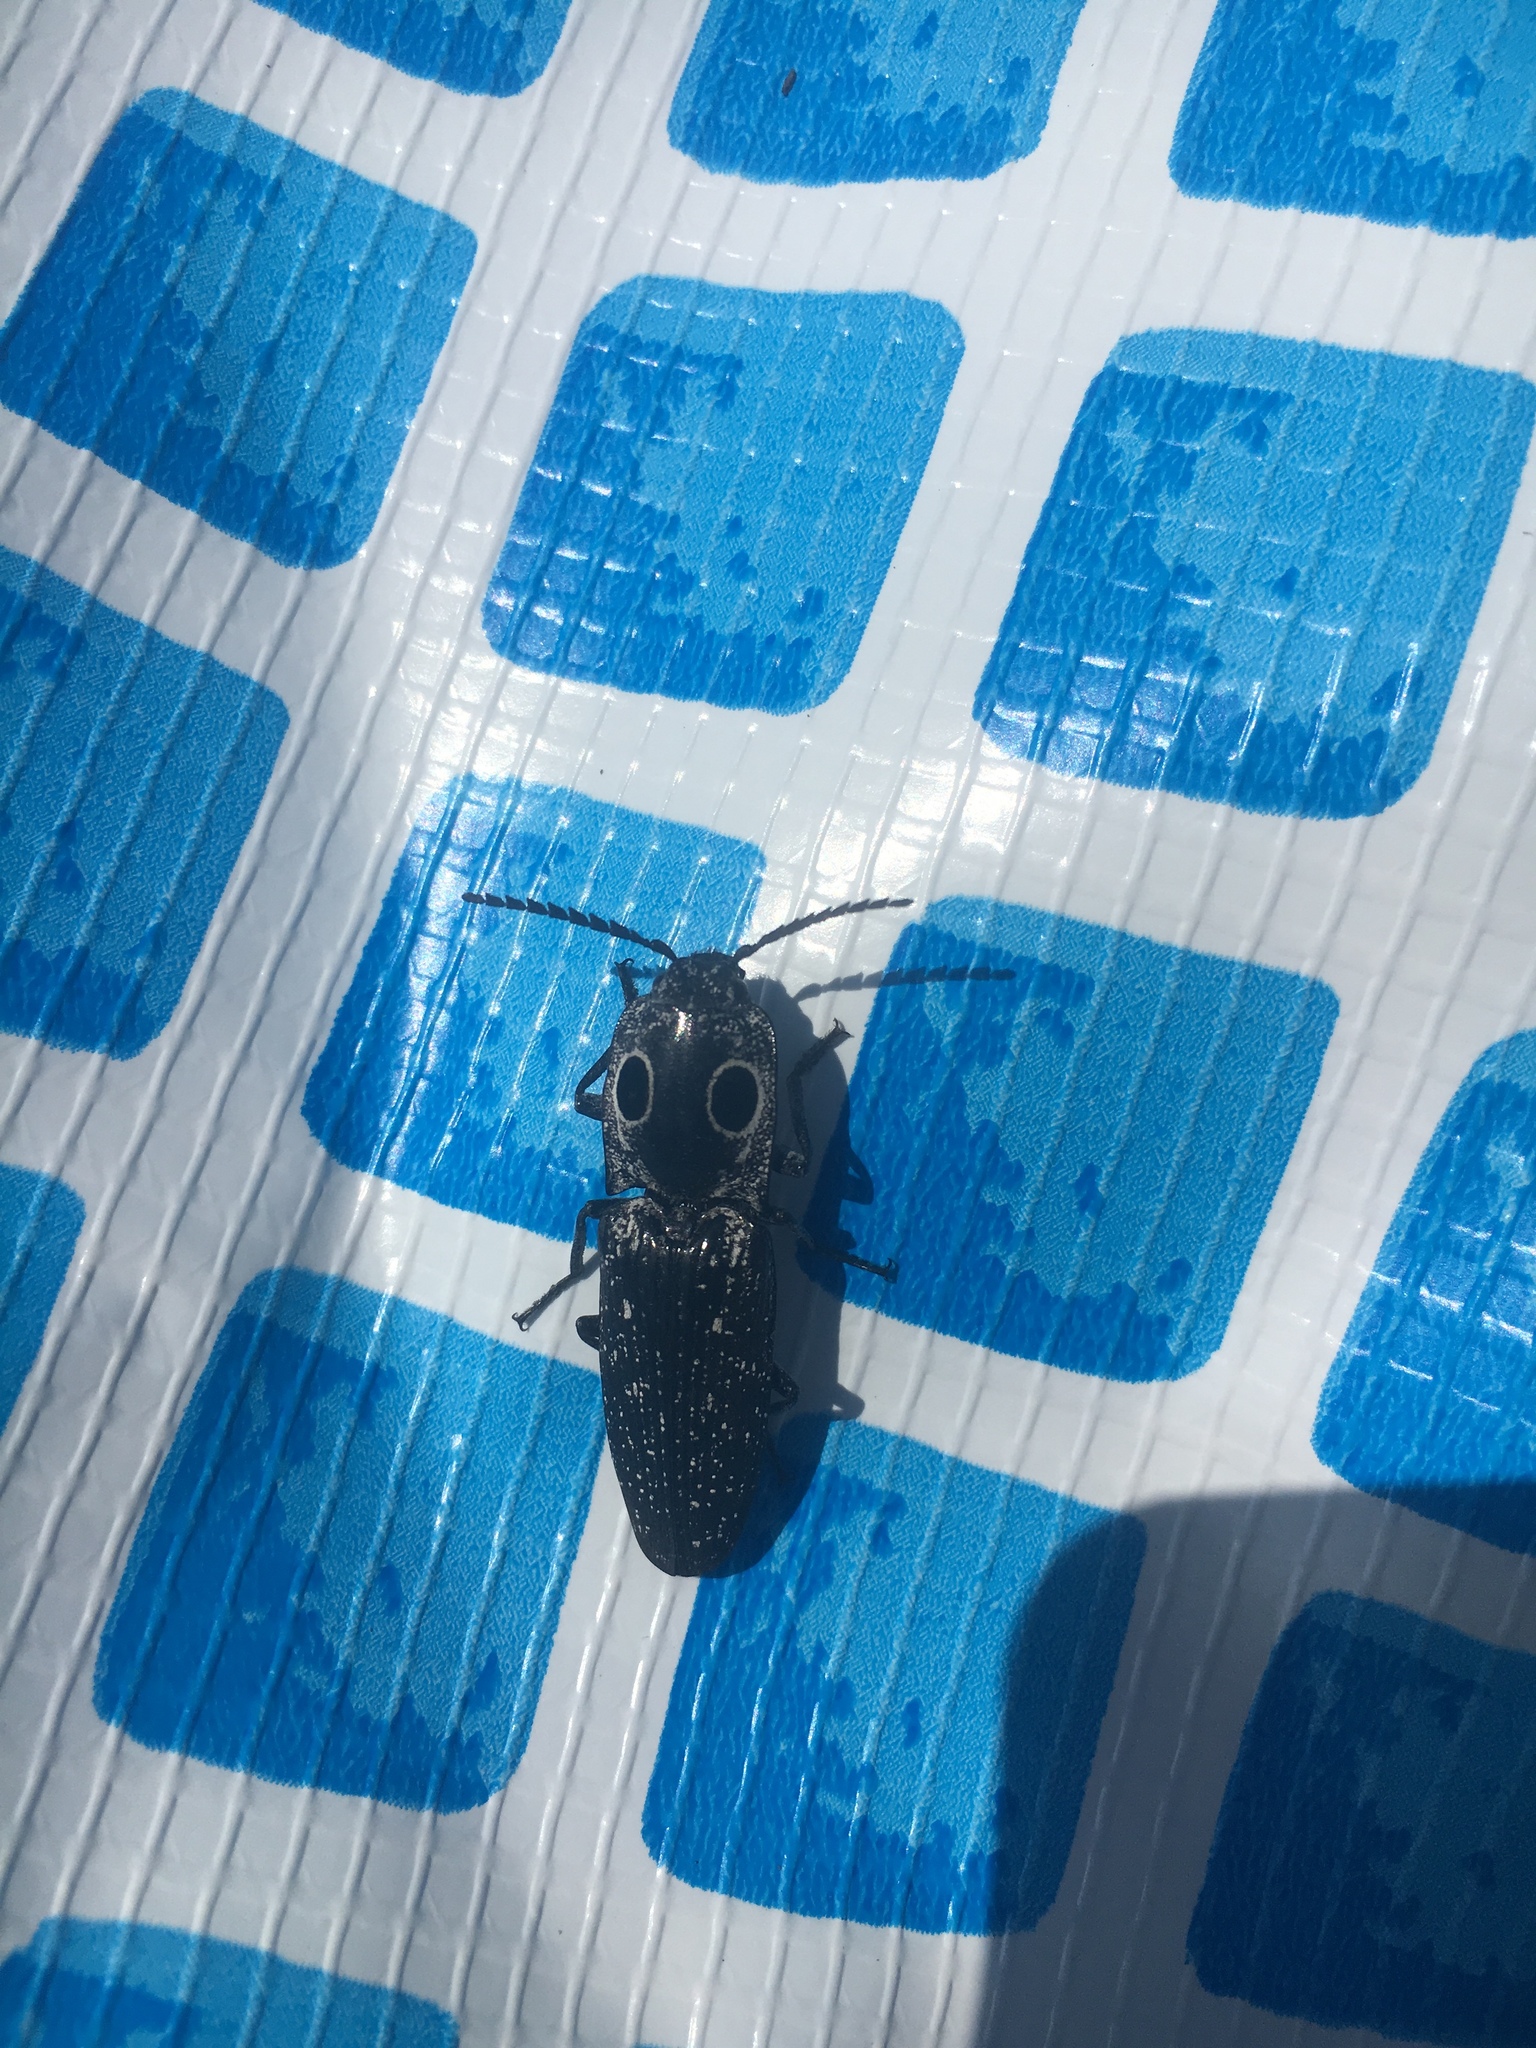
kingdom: Animalia
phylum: Arthropoda
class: Insecta
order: Coleoptera
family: Elateridae
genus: Alaus
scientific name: Alaus oculatus
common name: Eastern eyed click beetle
